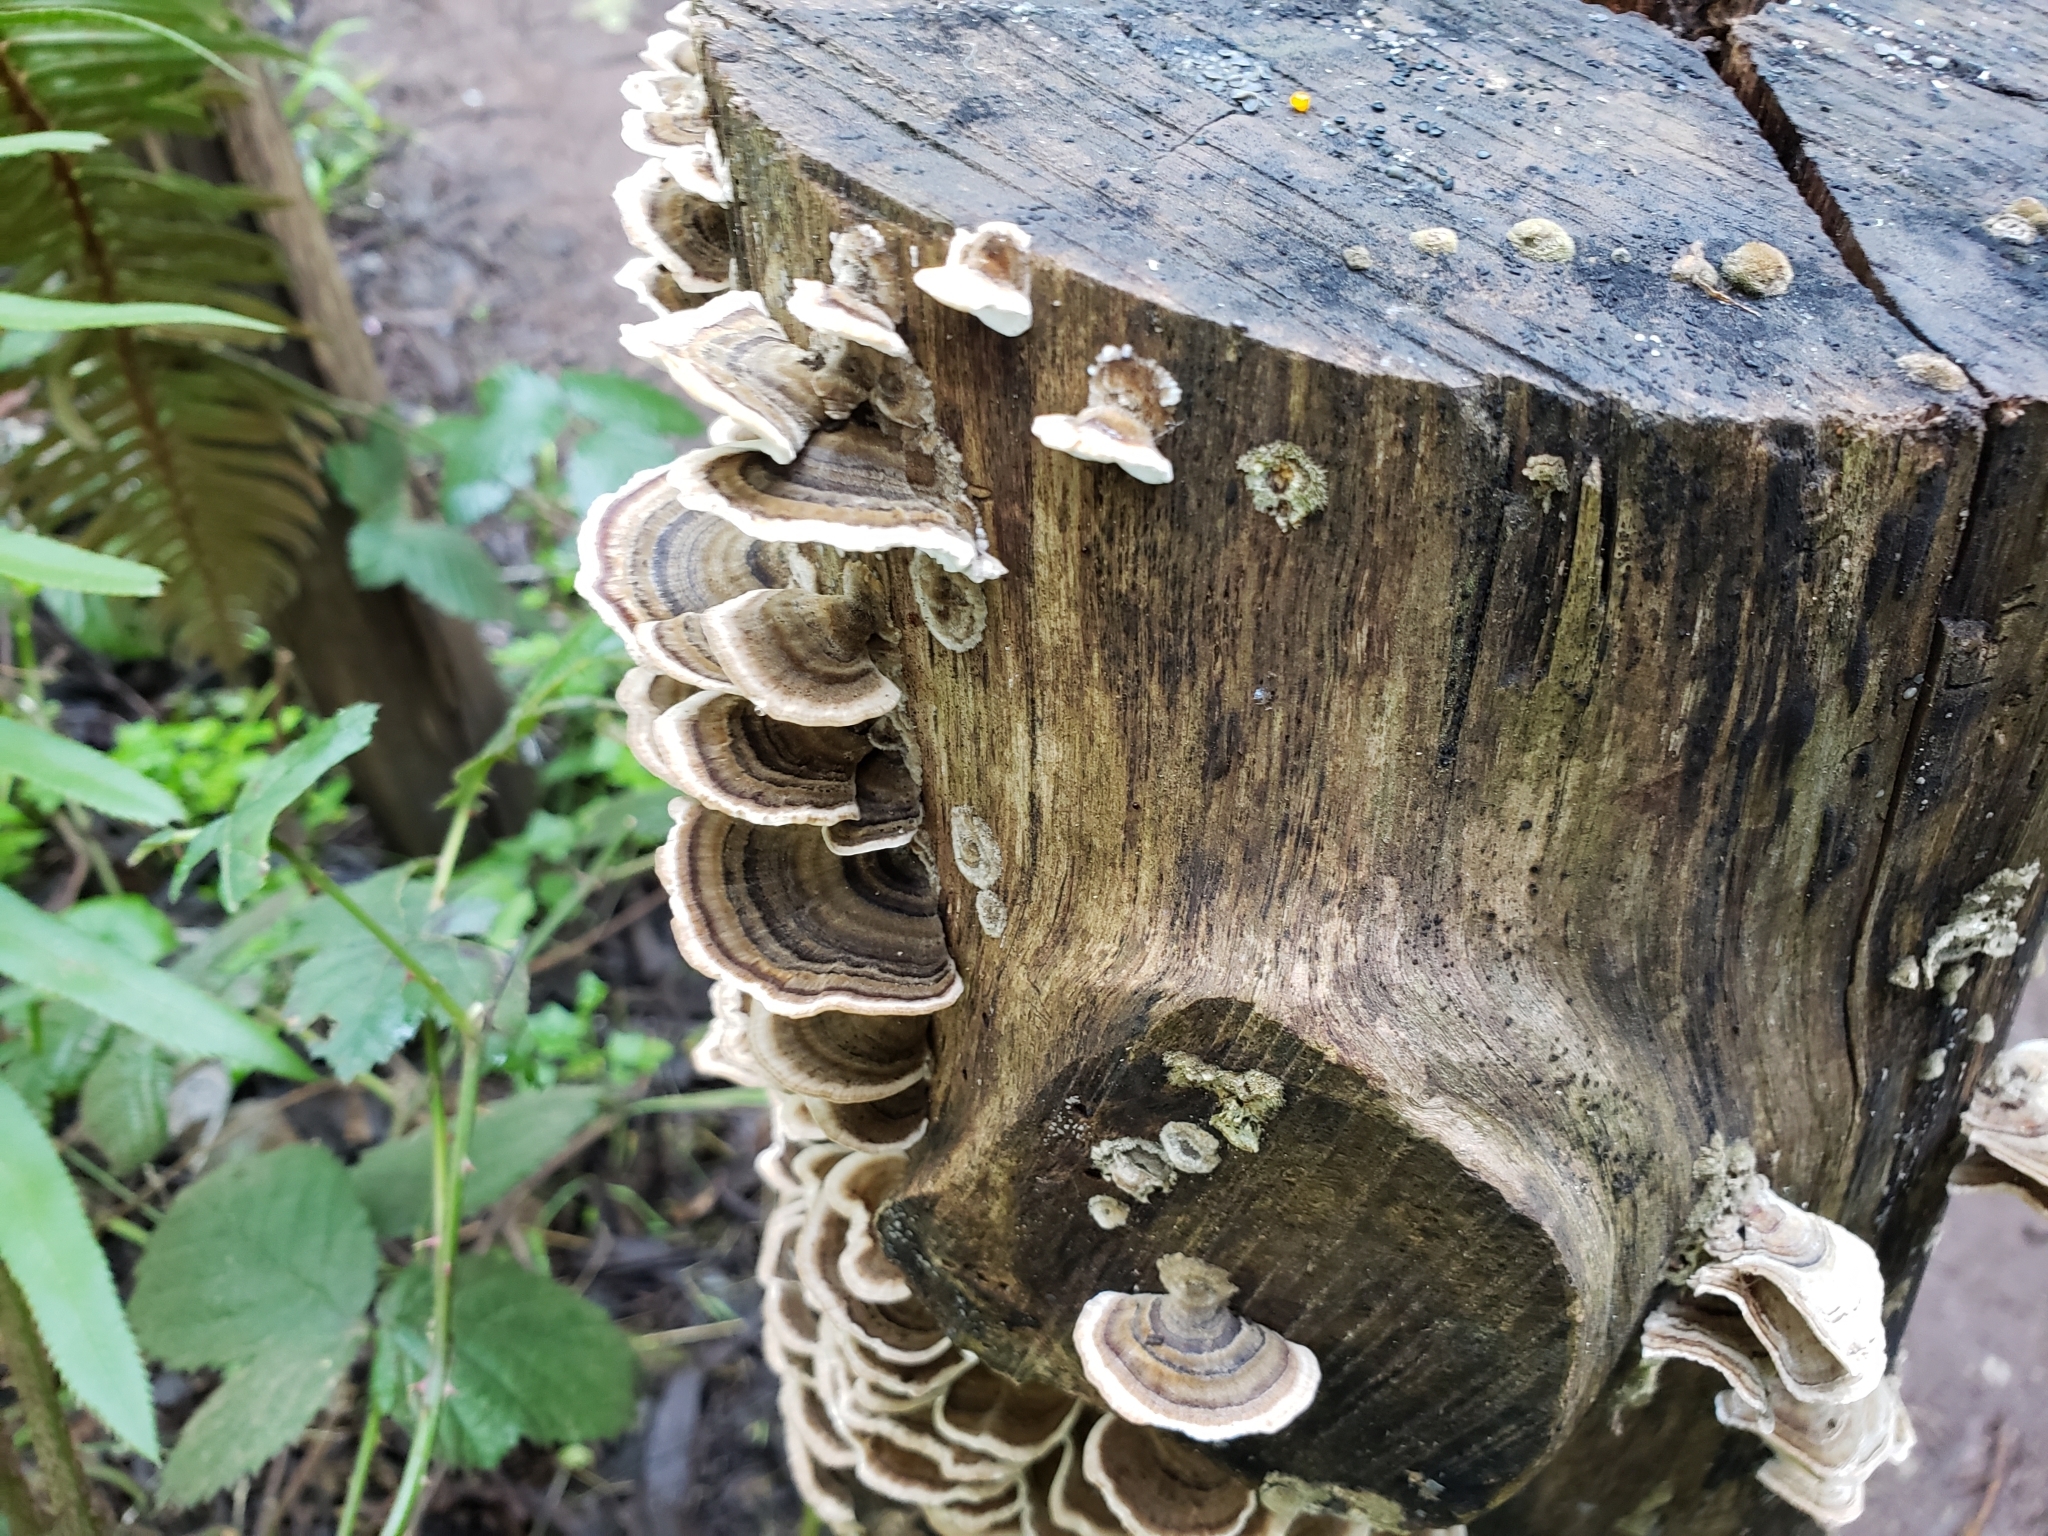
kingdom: Fungi
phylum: Basidiomycota
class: Agaricomycetes
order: Polyporales
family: Polyporaceae
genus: Trametes
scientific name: Trametes versicolor
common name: Turkeytail
